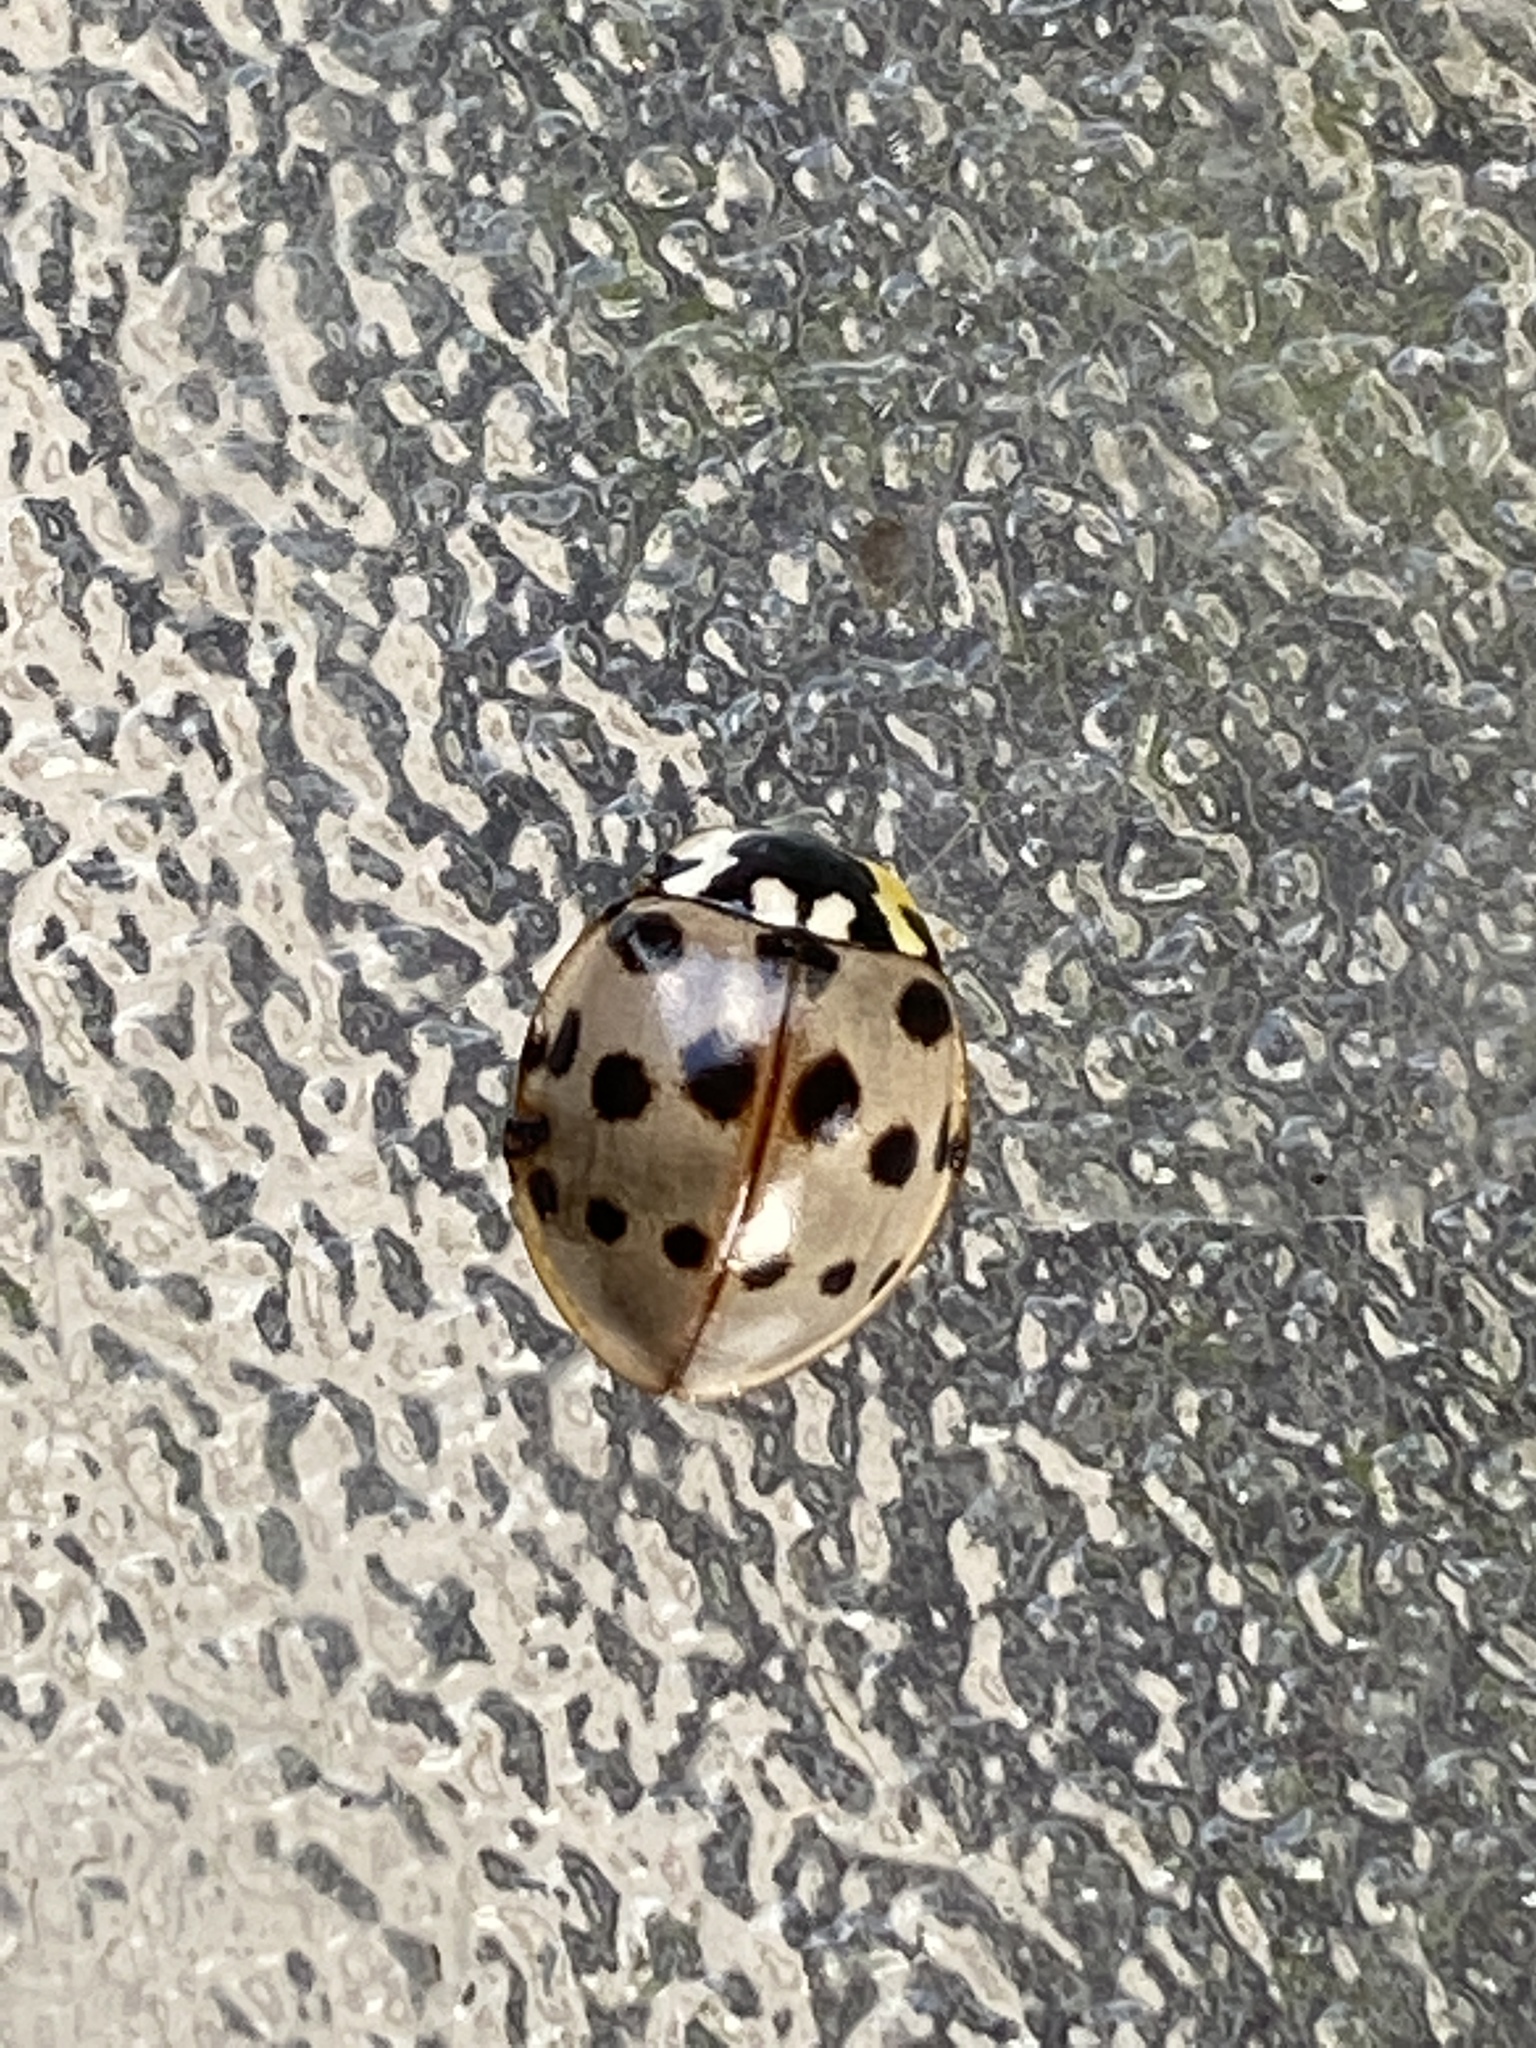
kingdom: Animalia
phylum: Arthropoda
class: Insecta
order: Coleoptera
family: Coccinellidae
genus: Anatis
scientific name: Anatis labiculata
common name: Fifteen-spotted lady beetle
